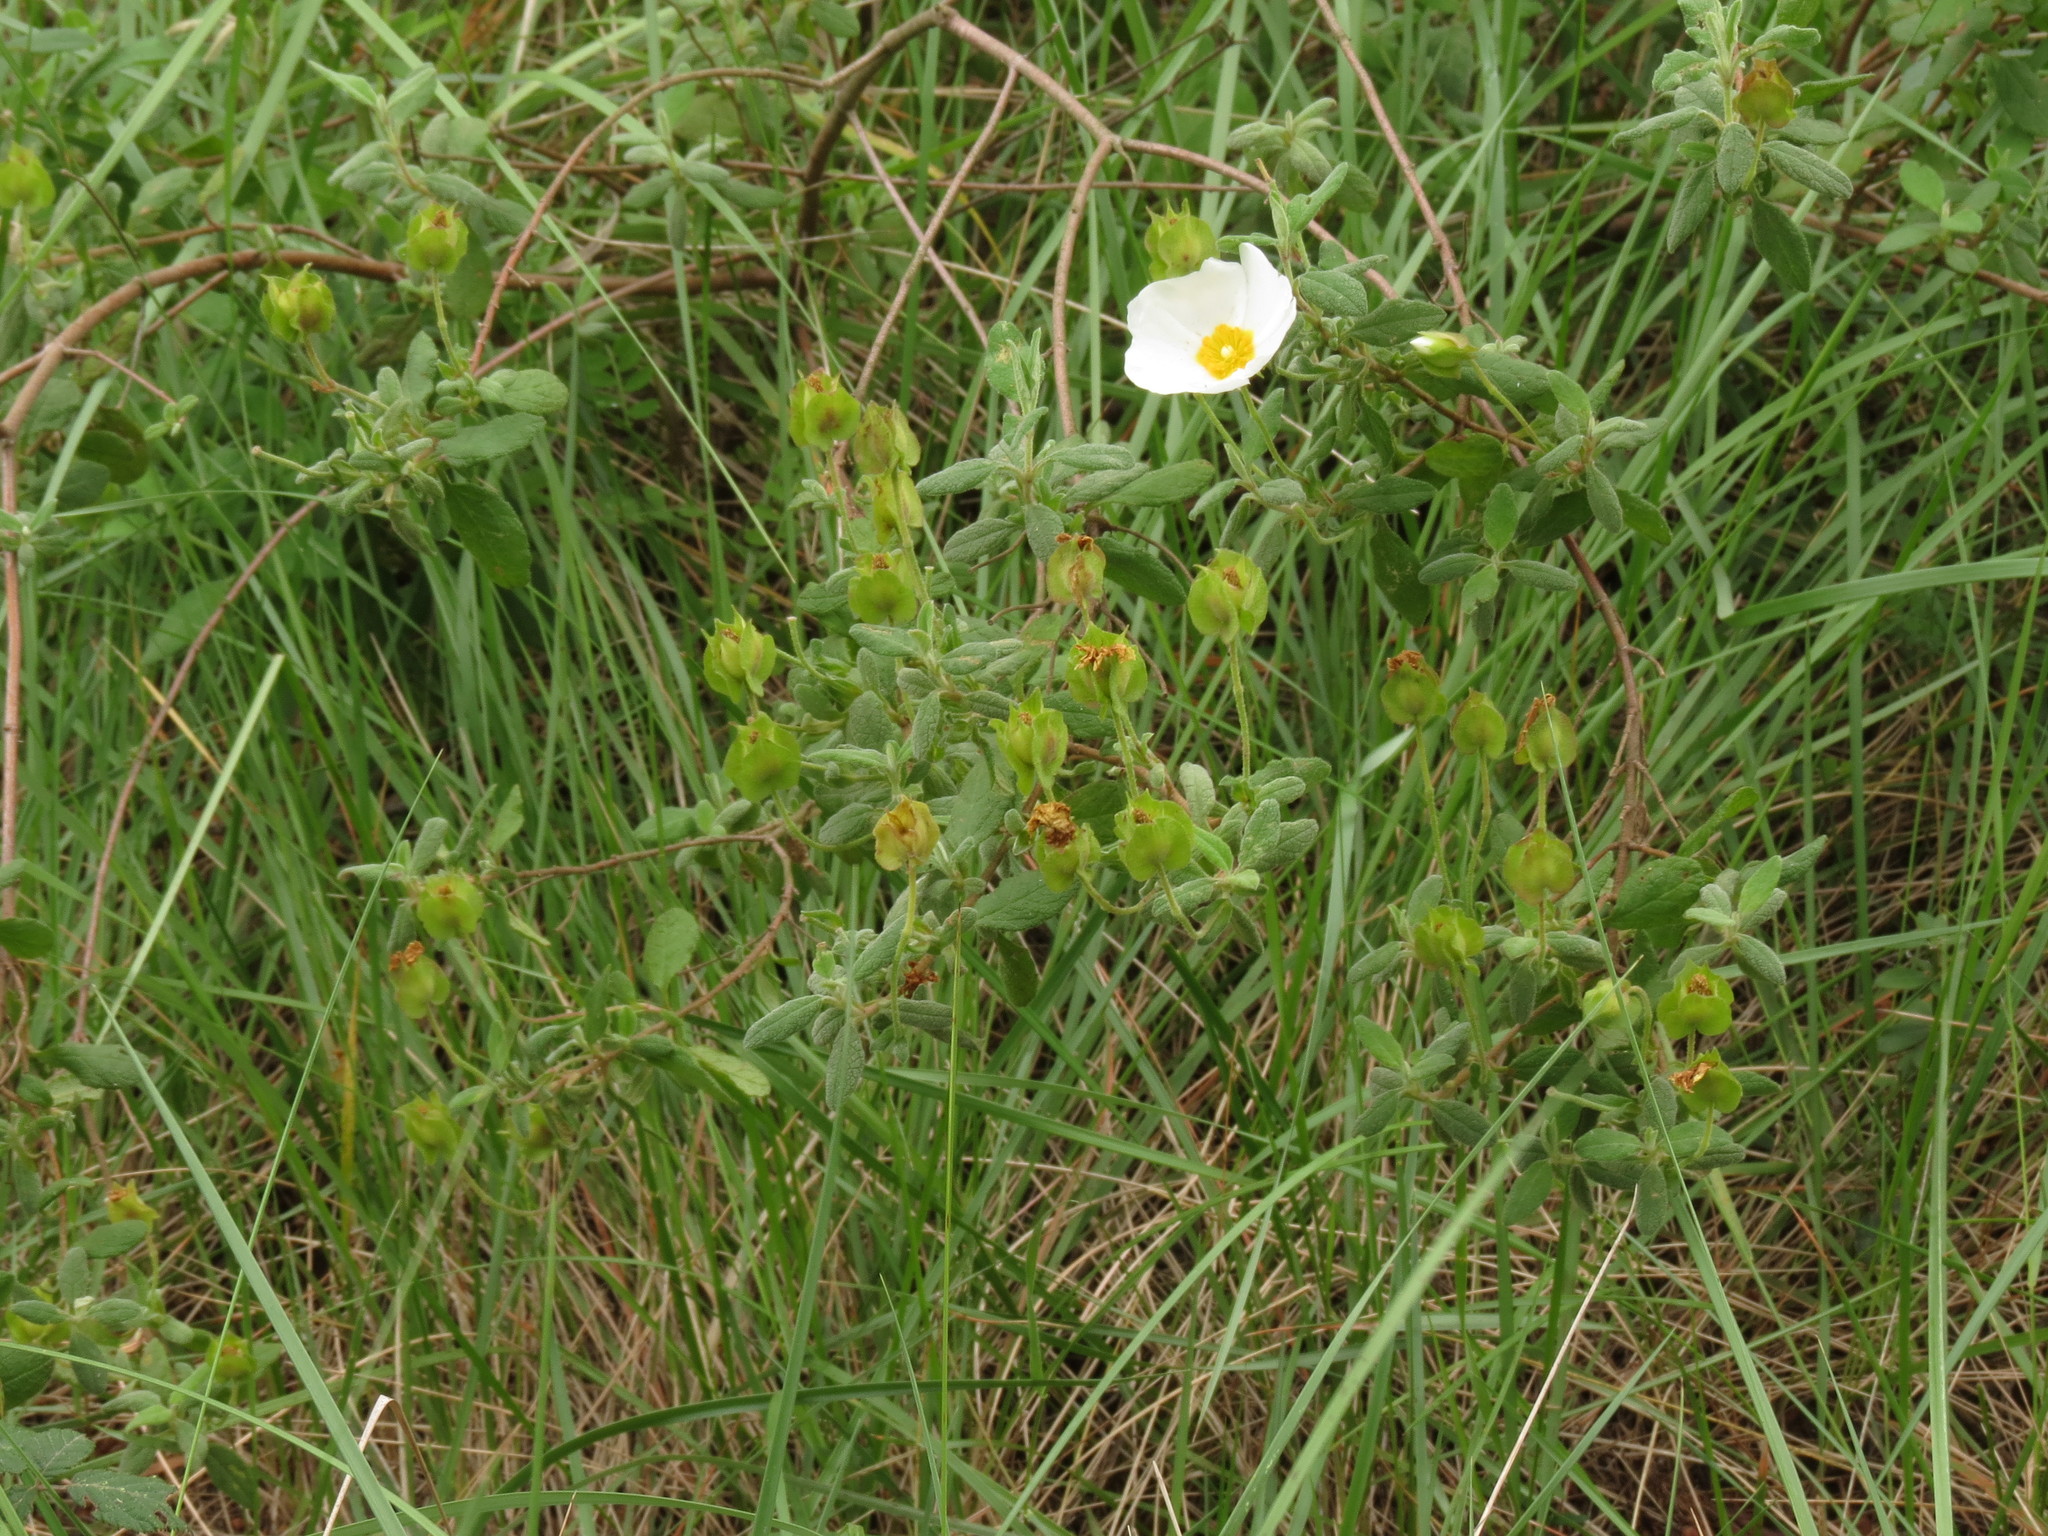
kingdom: Plantae
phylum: Tracheophyta
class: Magnoliopsida
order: Malvales
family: Cistaceae
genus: Cistus
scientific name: Cistus salviifolius
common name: Salvia cistus
